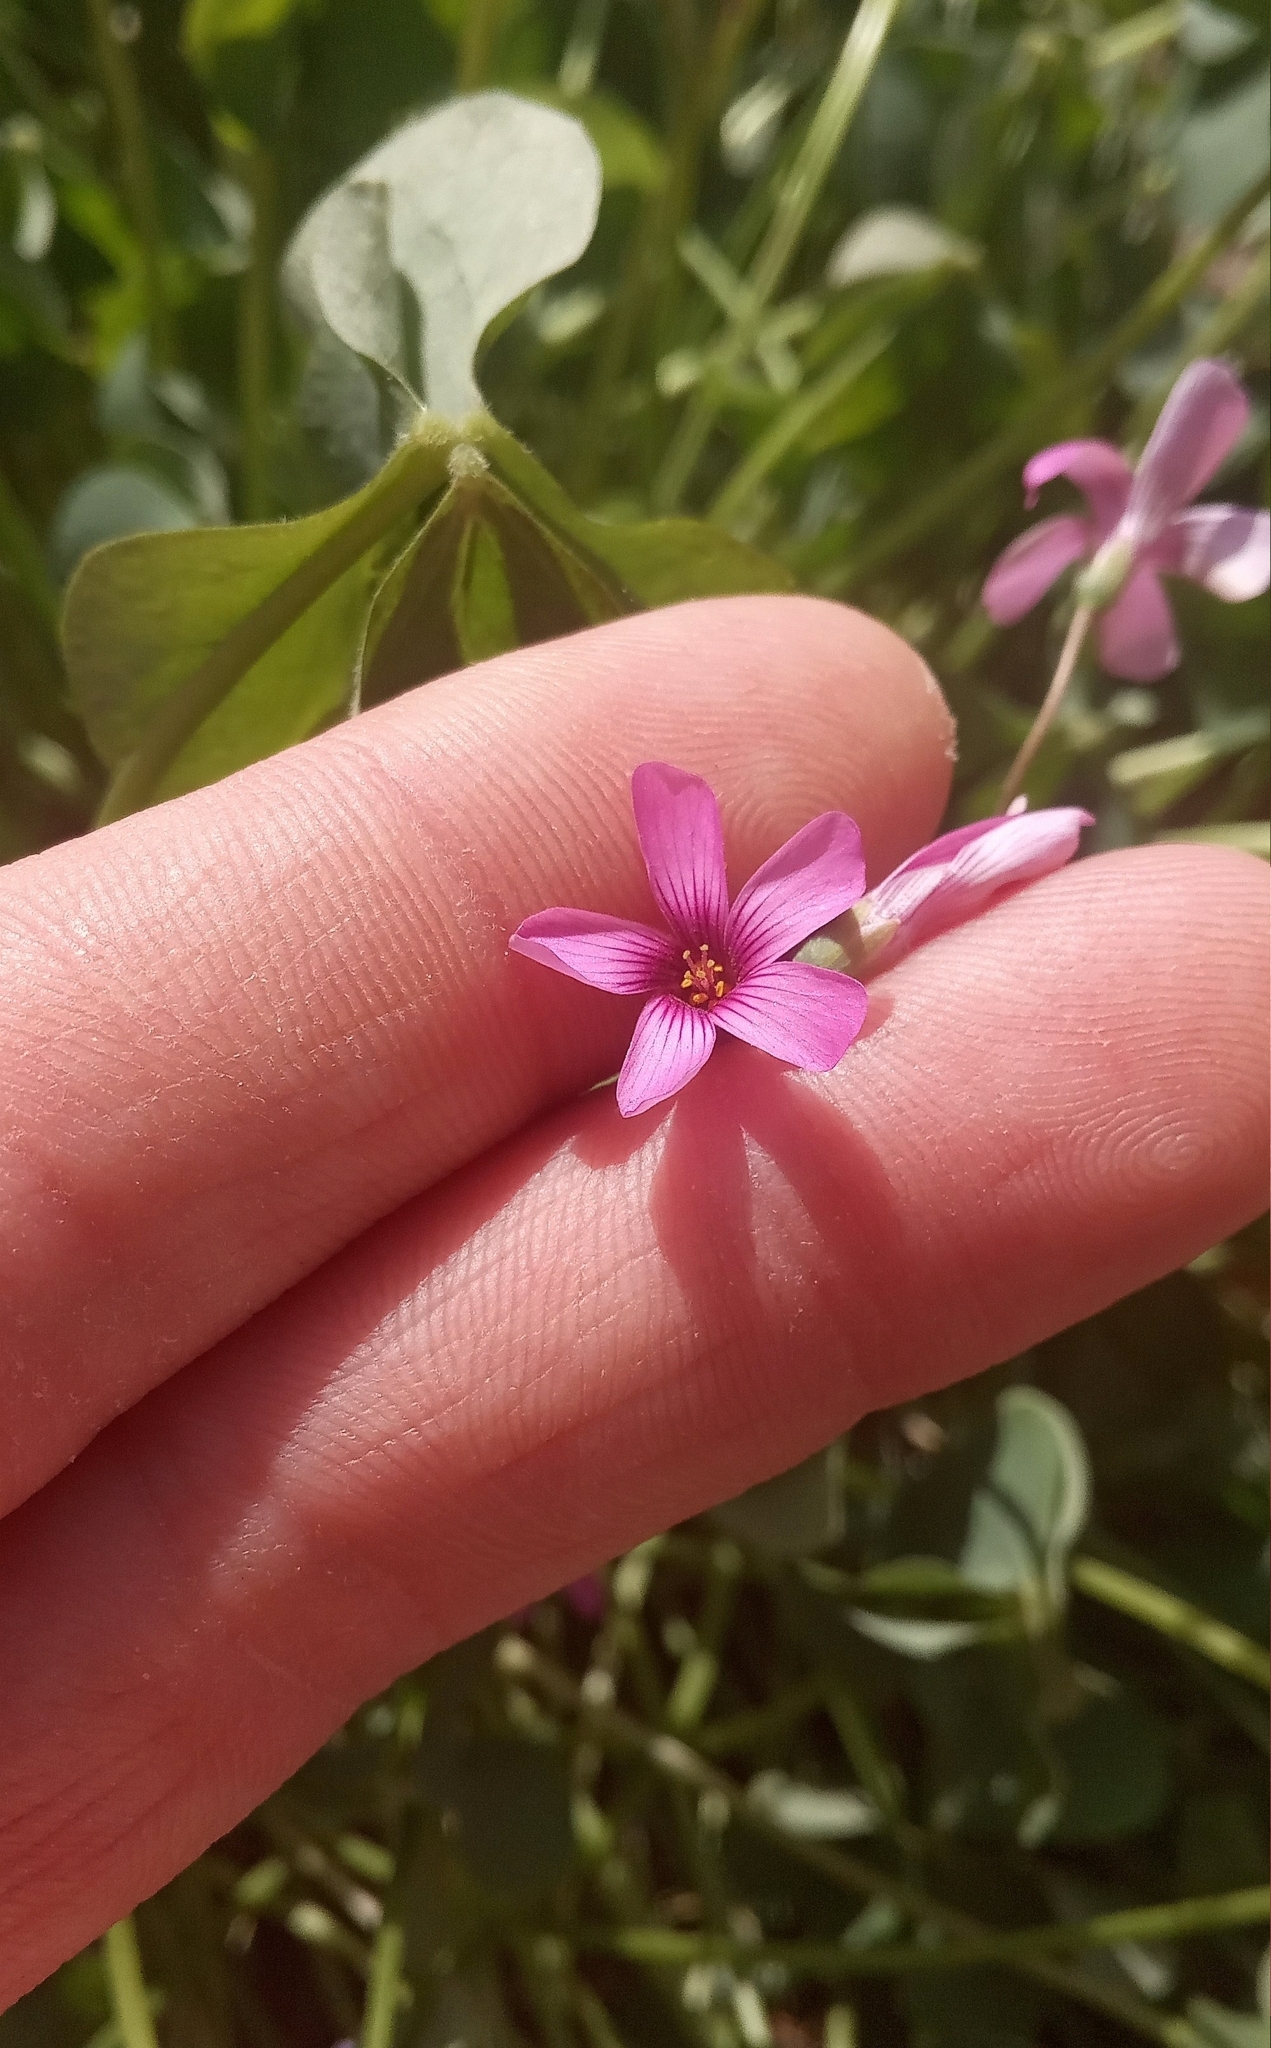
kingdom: Plantae
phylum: Tracheophyta
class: Magnoliopsida
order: Oxalidales
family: Oxalidaceae
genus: Oxalis
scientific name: Oxalis articulata
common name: Pink-sorrel
